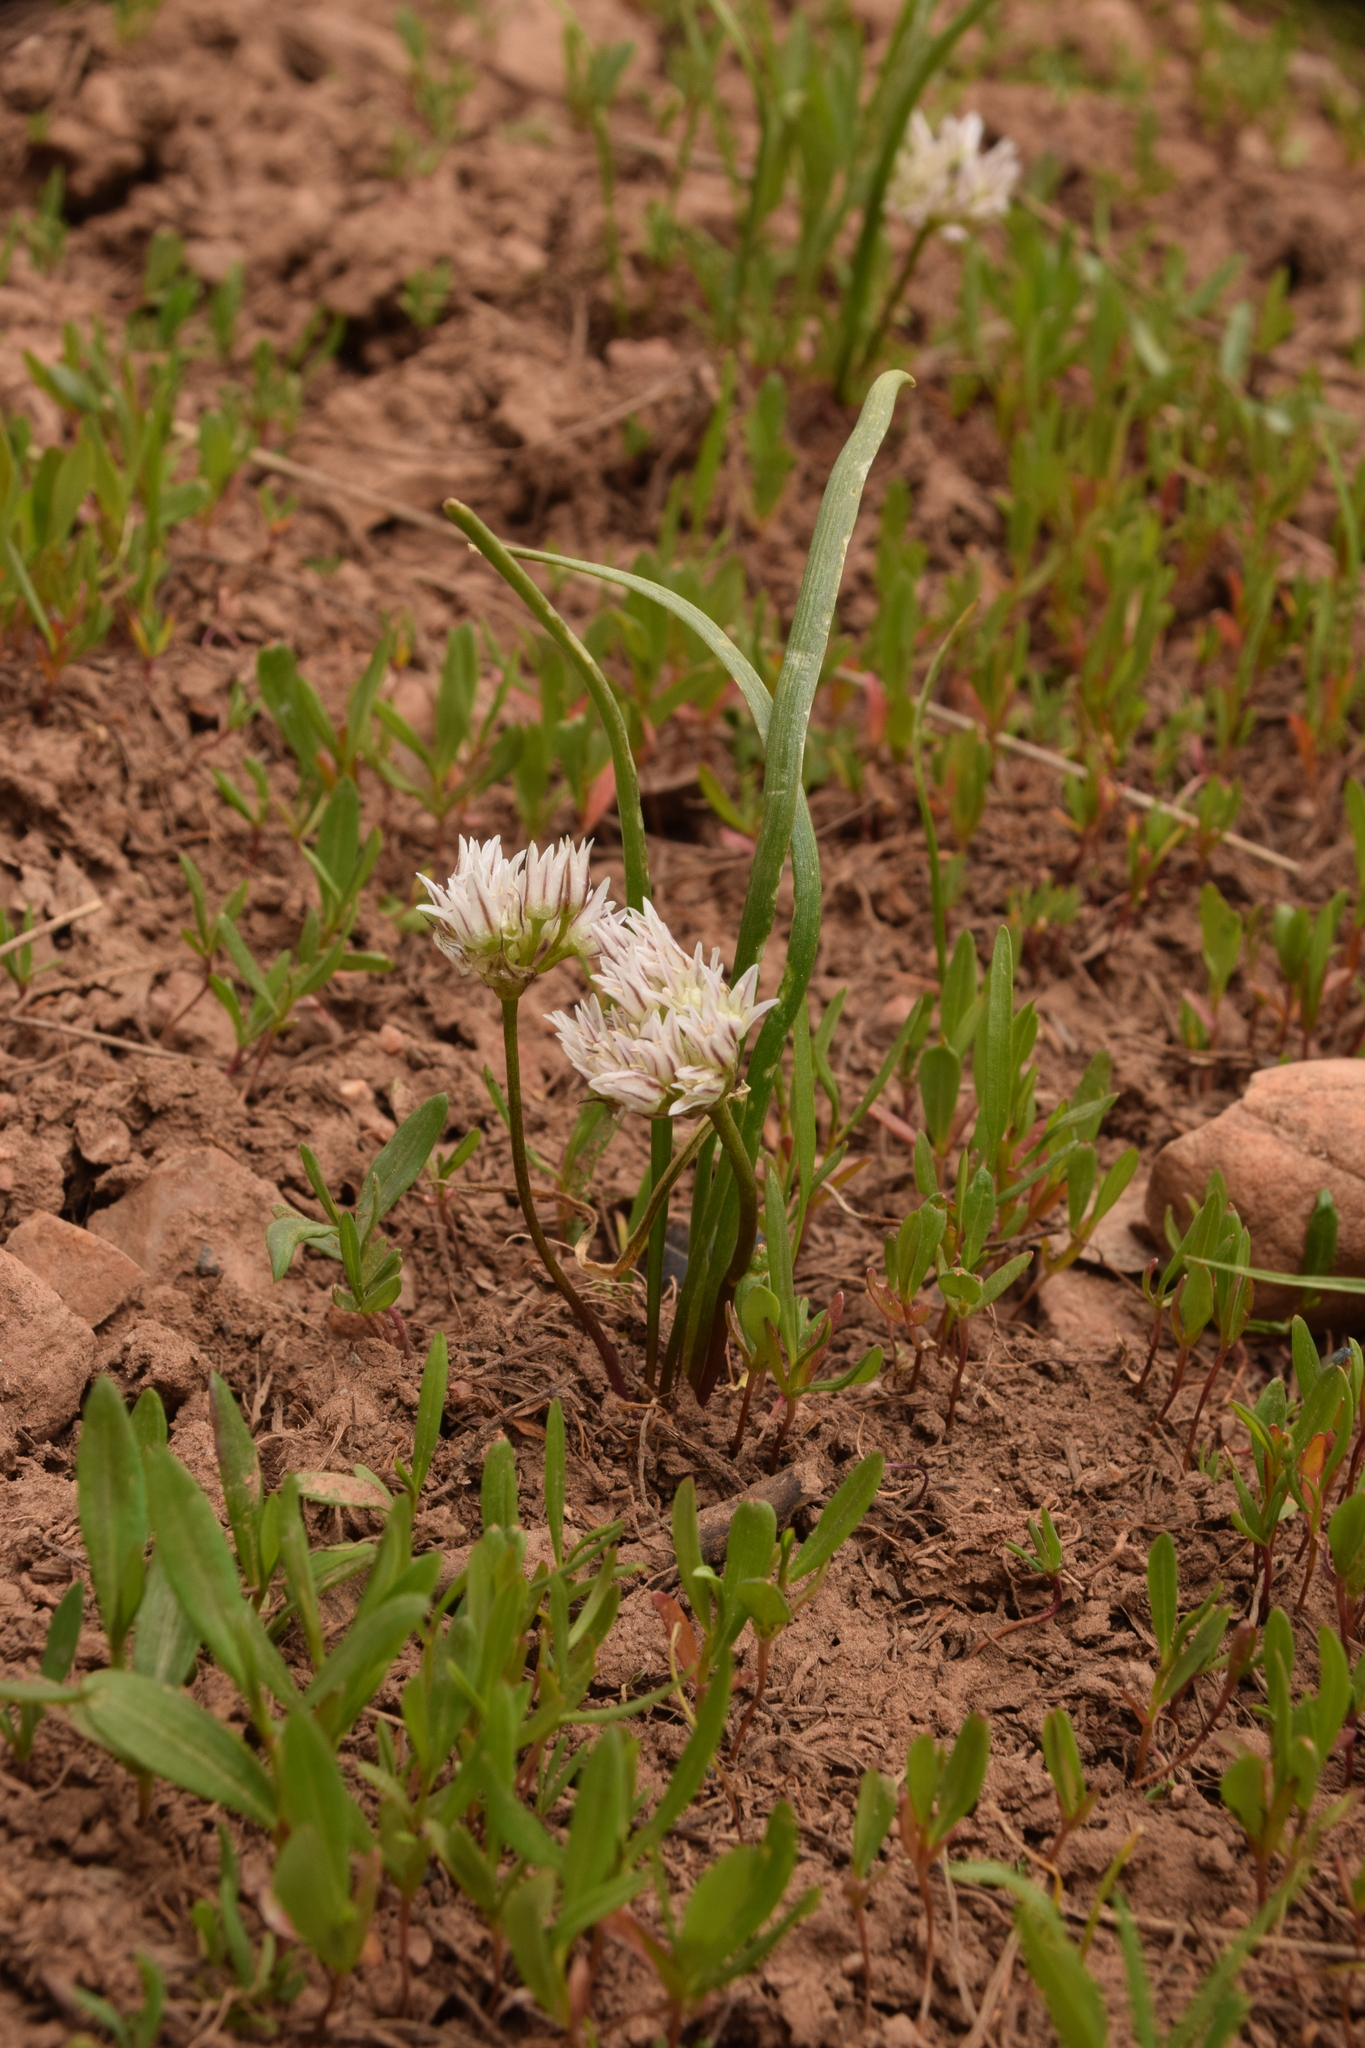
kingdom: Plantae
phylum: Tracheophyta
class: Liliopsida
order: Asparagales
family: Amaryllidaceae
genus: Allium
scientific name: Allium brandegeei
